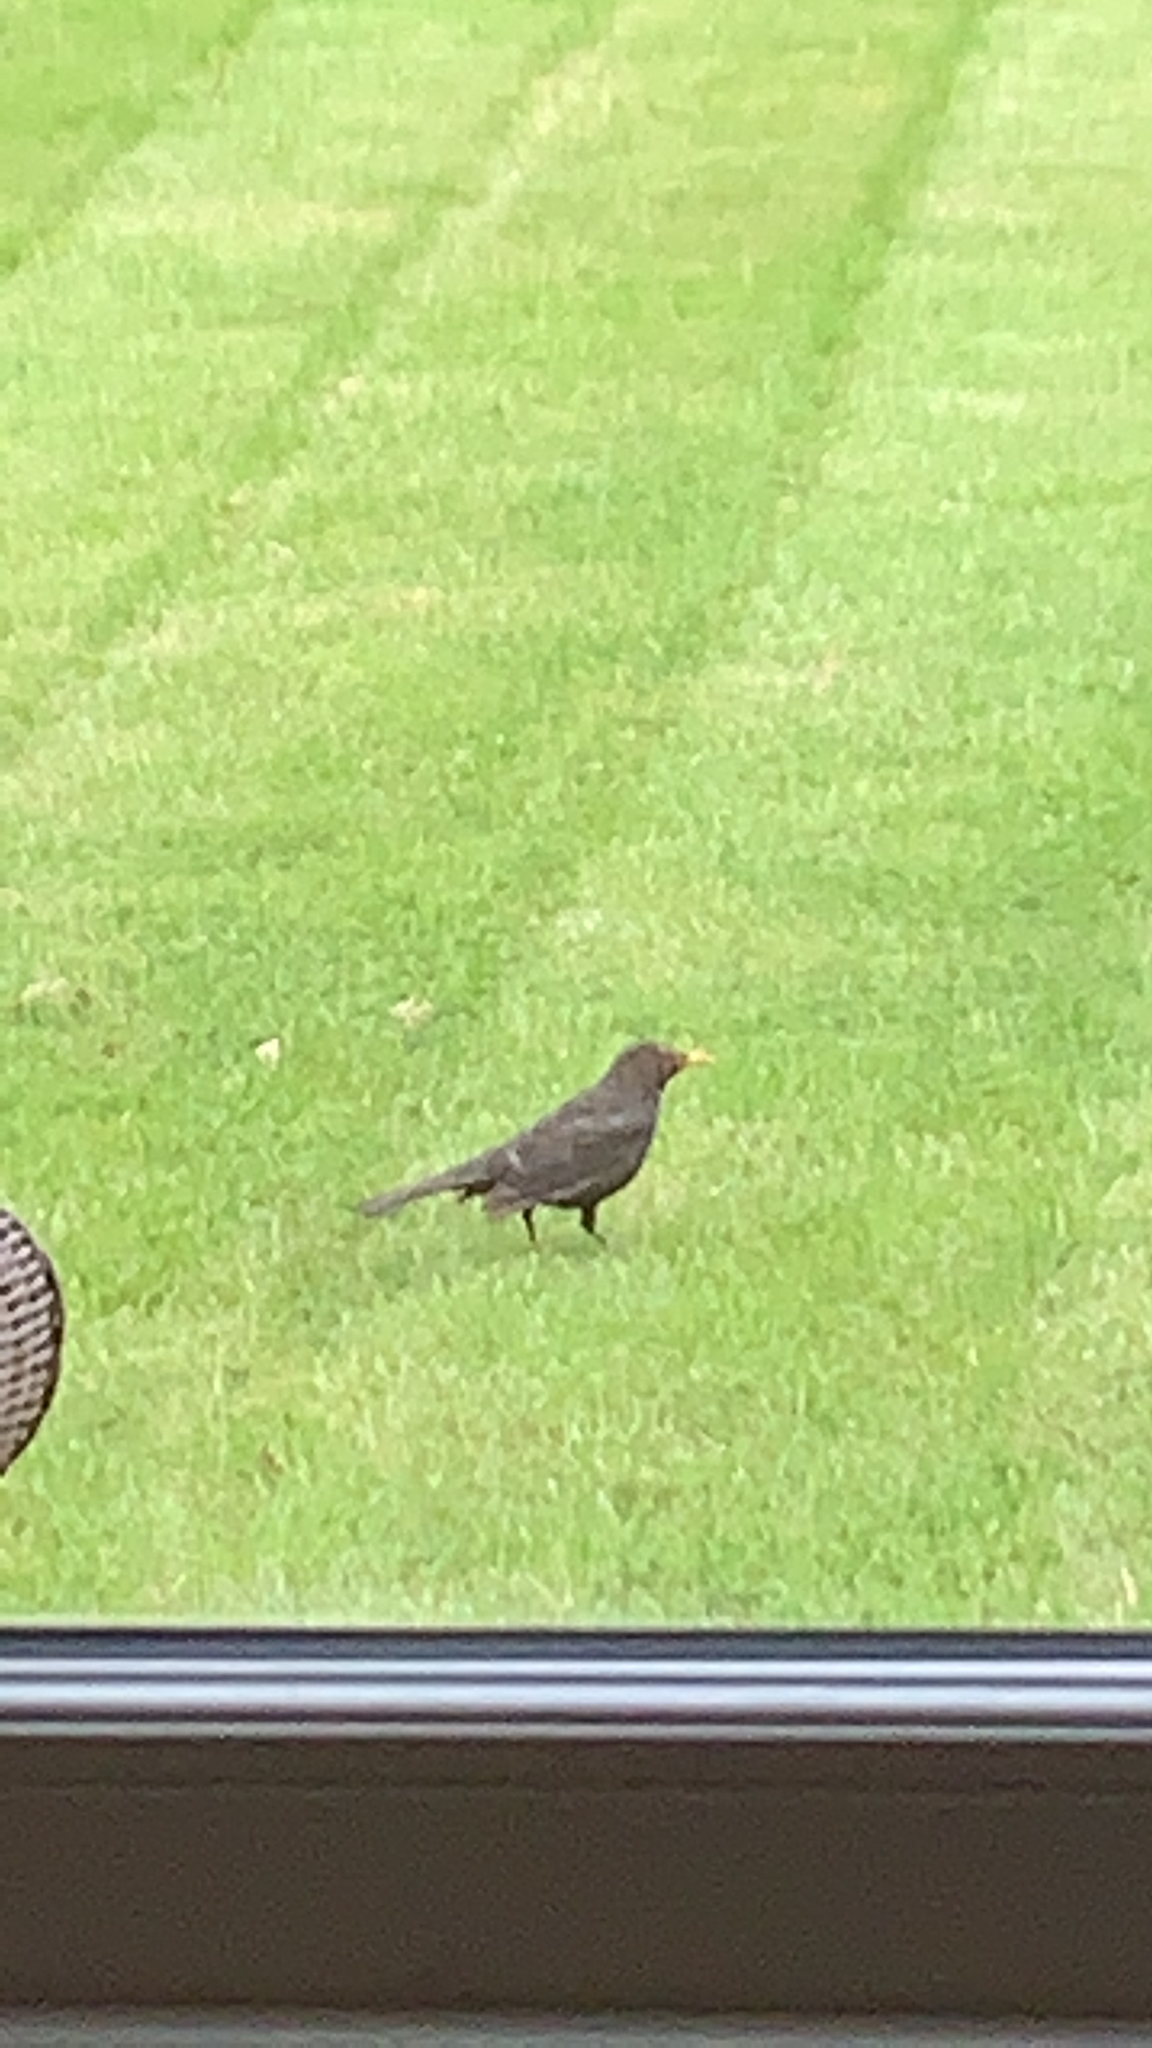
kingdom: Animalia
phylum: Chordata
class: Aves
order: Passeriformes
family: Turdidae
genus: Turdus
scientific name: Turdus merula
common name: Common blackbird
